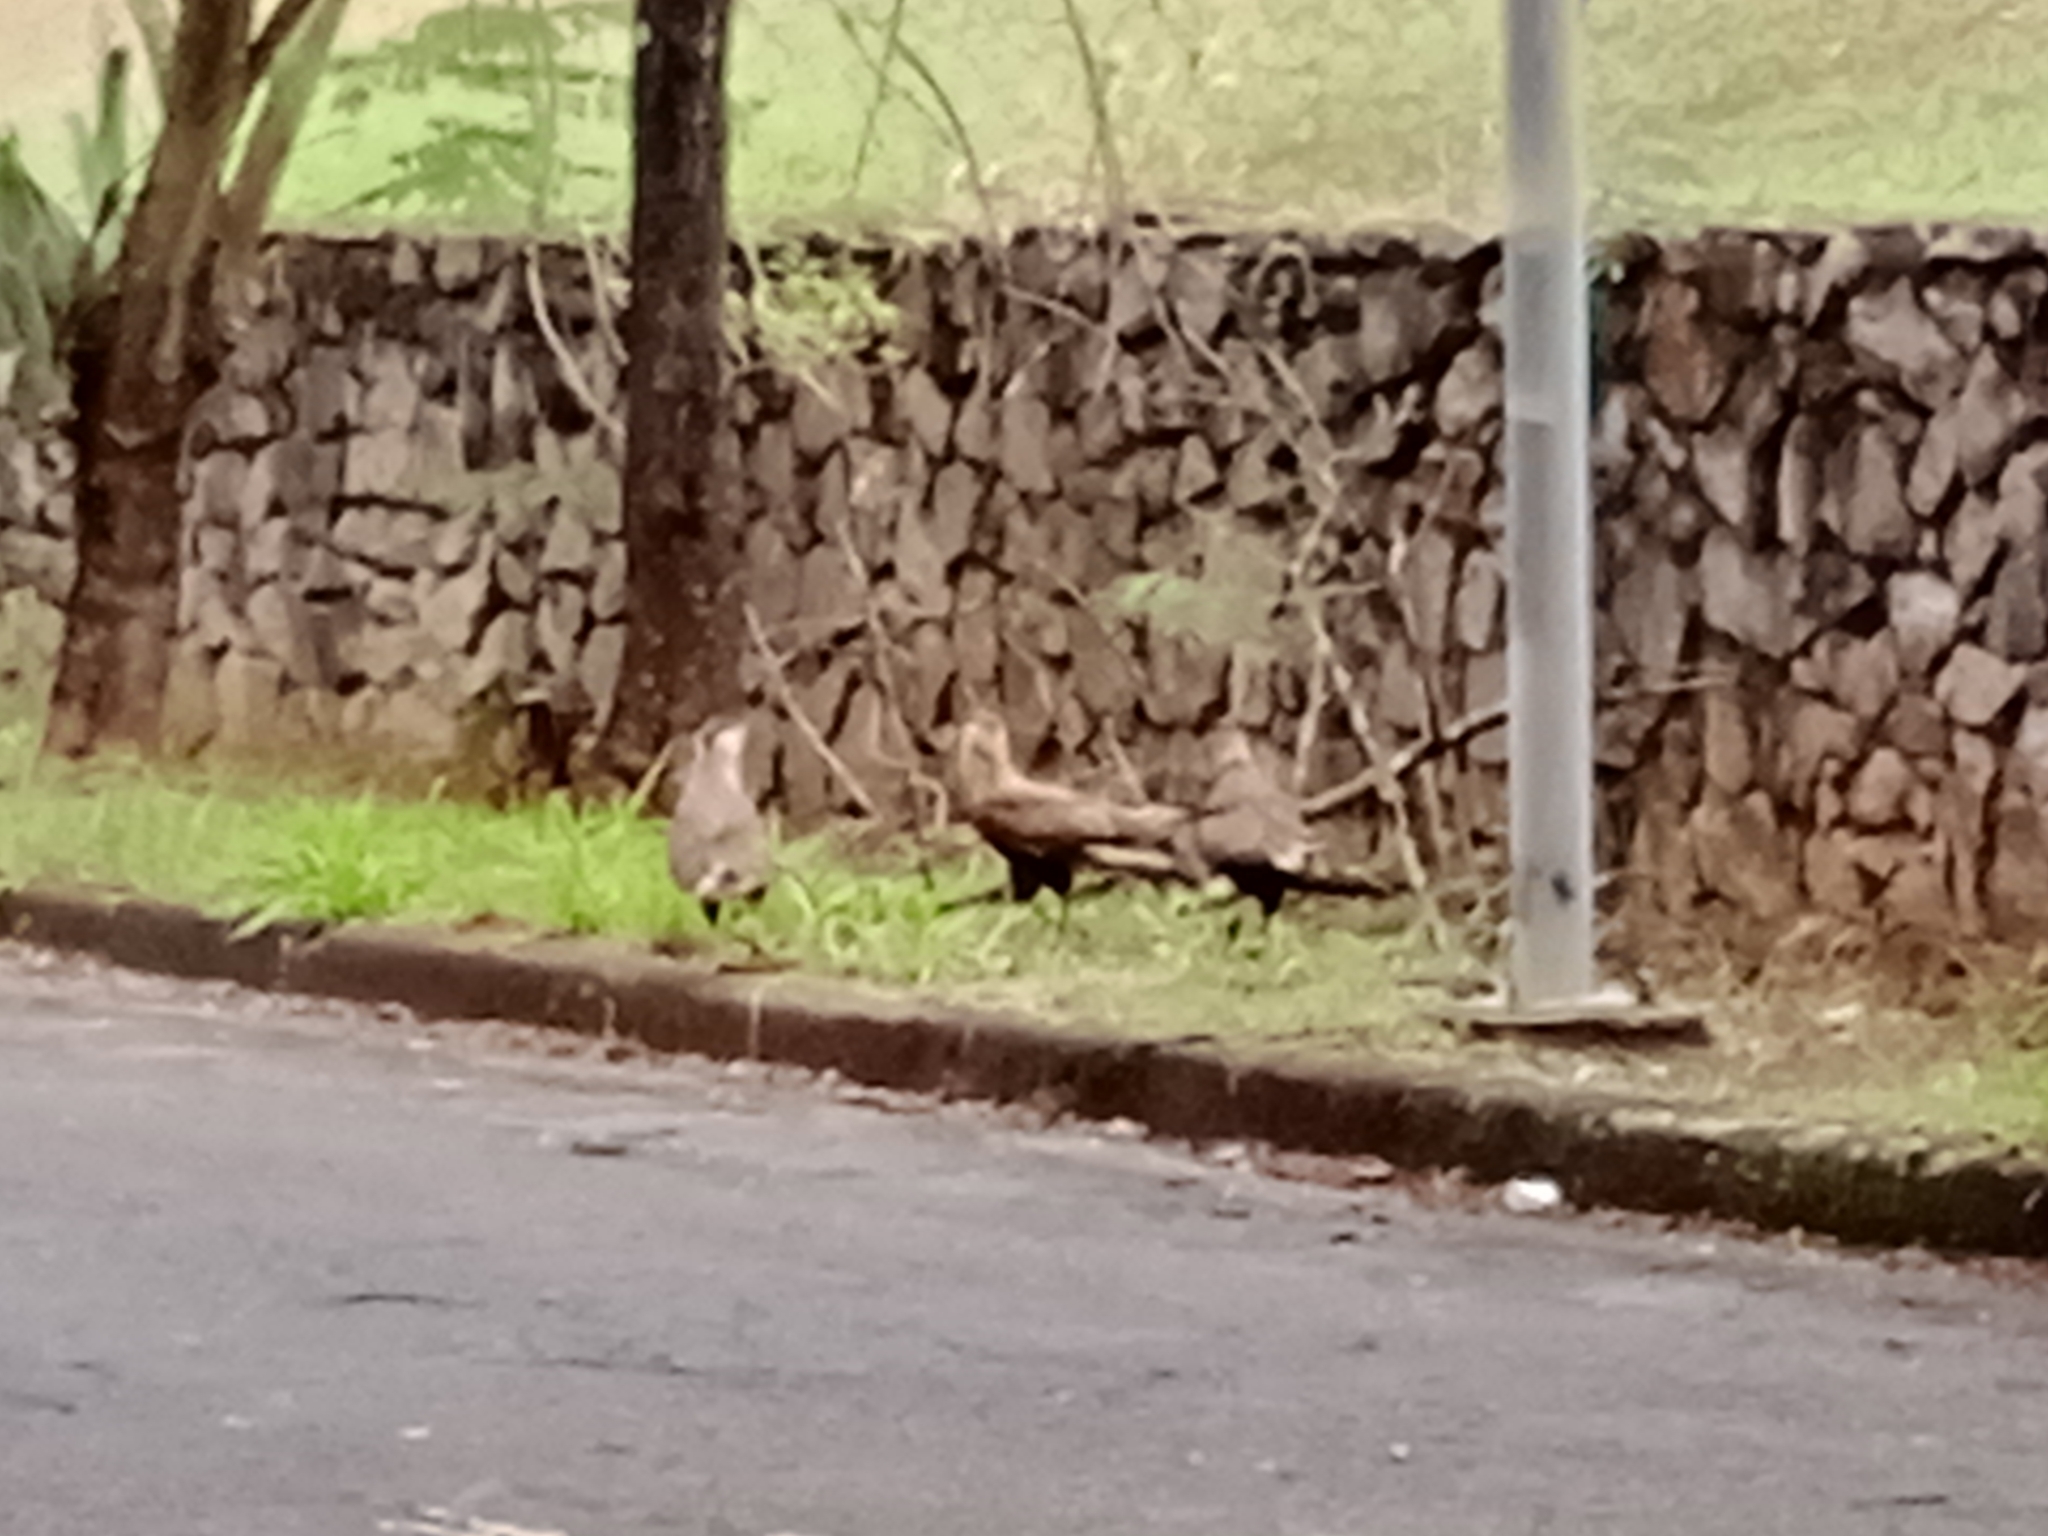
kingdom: Animalia
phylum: Chordata
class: Aves
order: Falconiformes
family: Falconidae
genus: Caracara
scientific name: Caracara plancus
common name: Southern caracara
